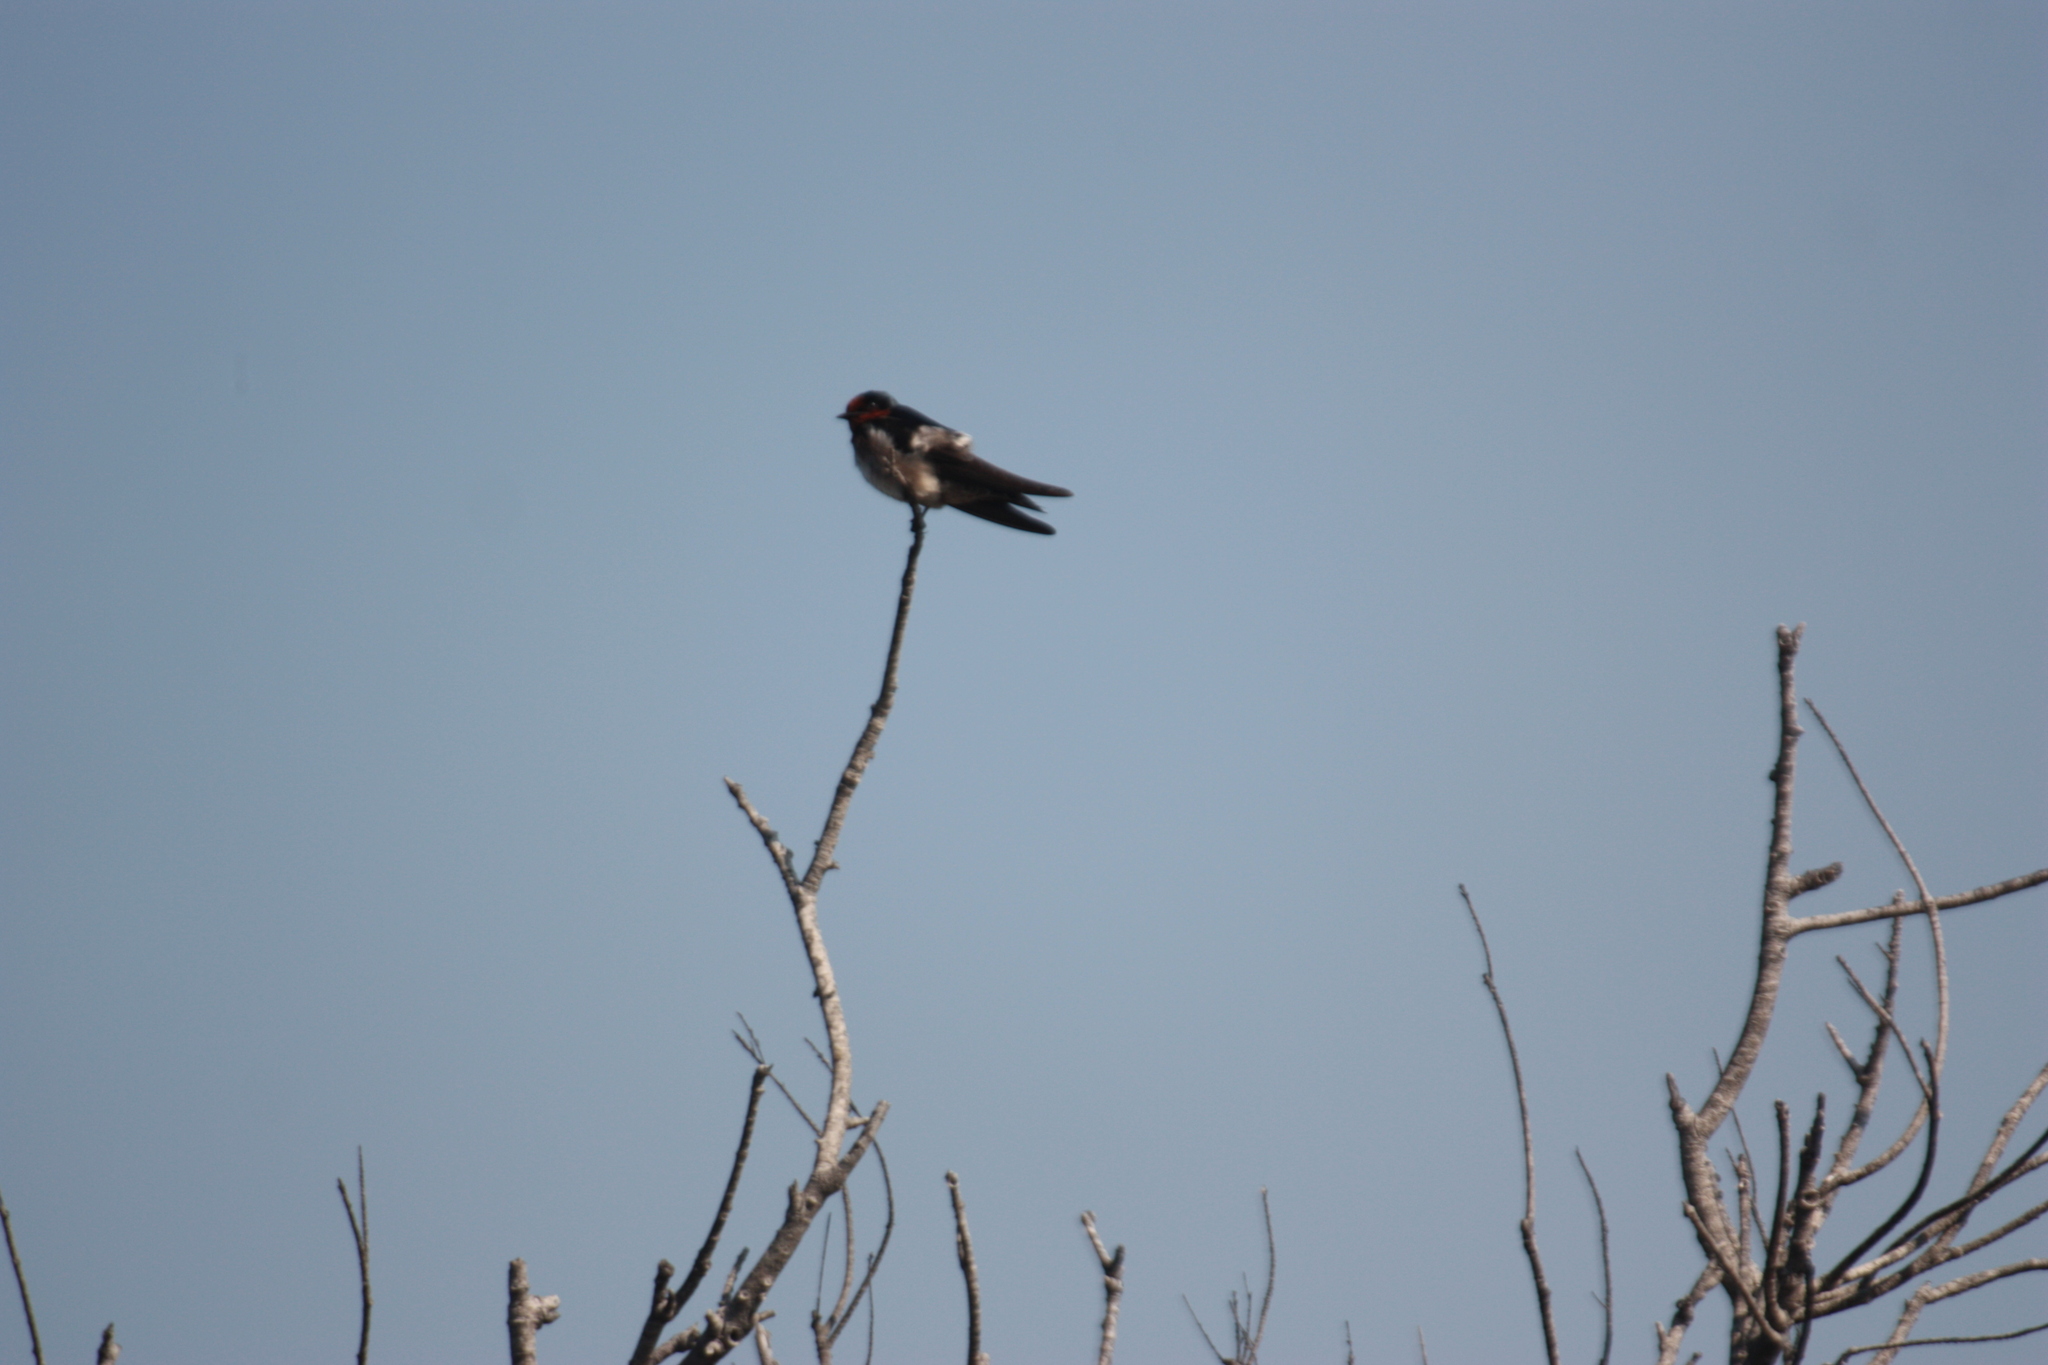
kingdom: Animalia
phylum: Chordata
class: Aves
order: Passeriformes
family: Hirundinidae
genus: Hirundo
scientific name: Hirundo tahitica
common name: Pacific swallow
